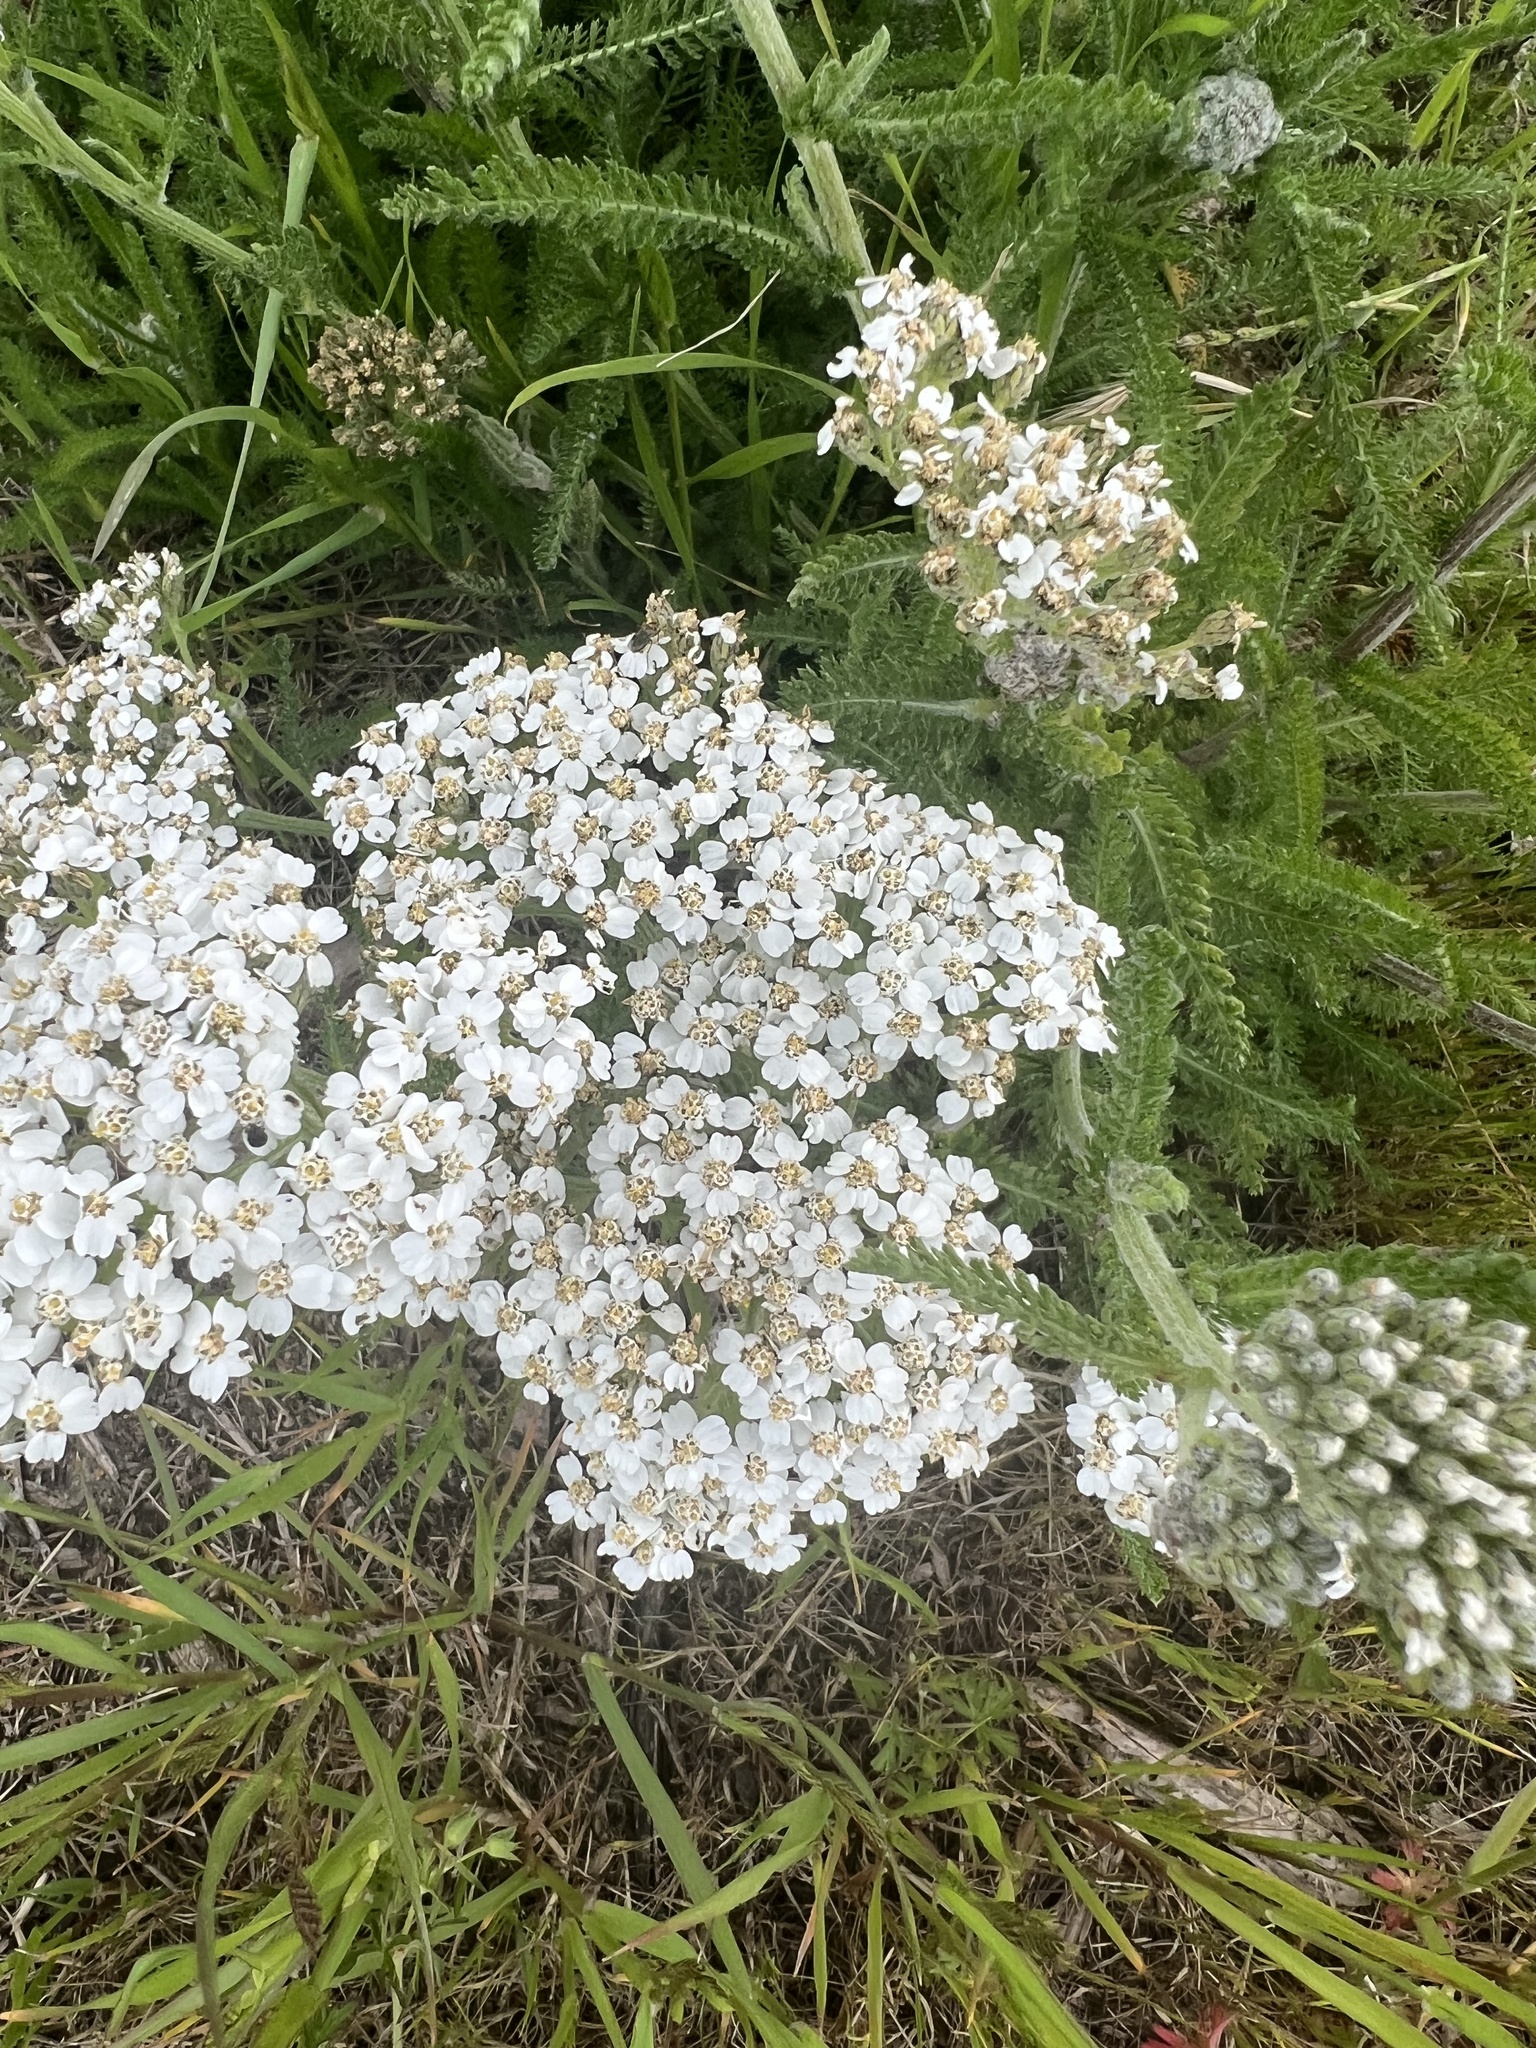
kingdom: Plantae
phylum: Tracheophyta
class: Magnoliopsida
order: Asterales
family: Asteraceae
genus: Achillea
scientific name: Achillea millefolium
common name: Yarrow
